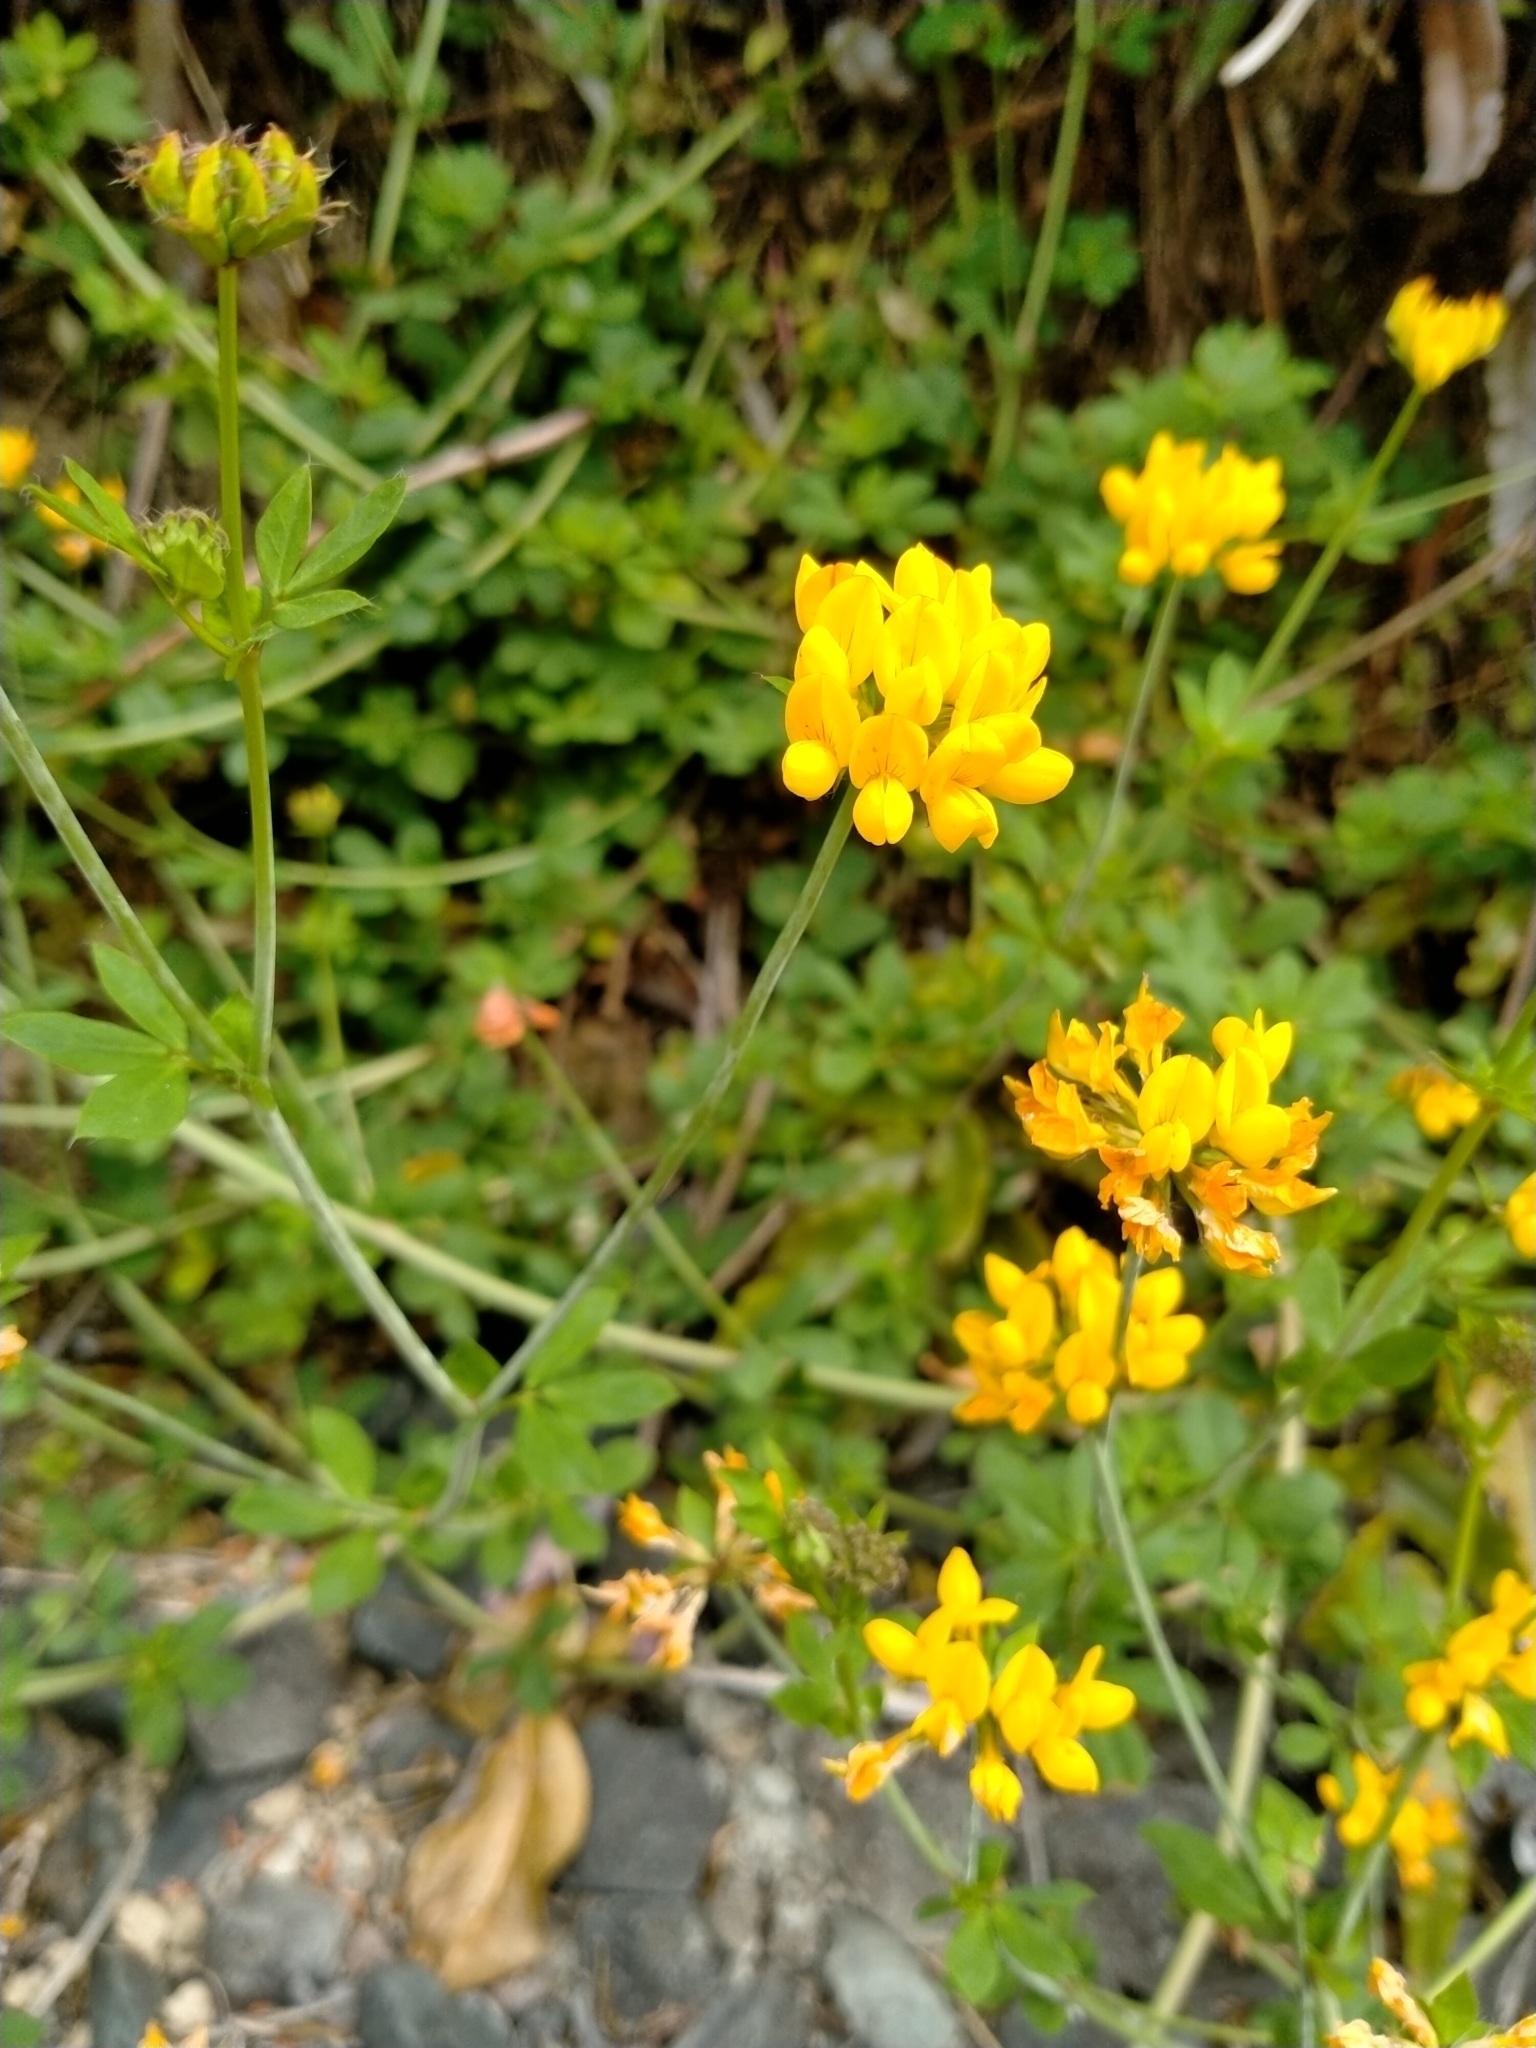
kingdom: Plantae
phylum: Tracheophyta
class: Magnoliopsida
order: Fabales
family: Fabaceae
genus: Lotus
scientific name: Lotus pedunculatus
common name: Greater birdsfoot-trefoil
